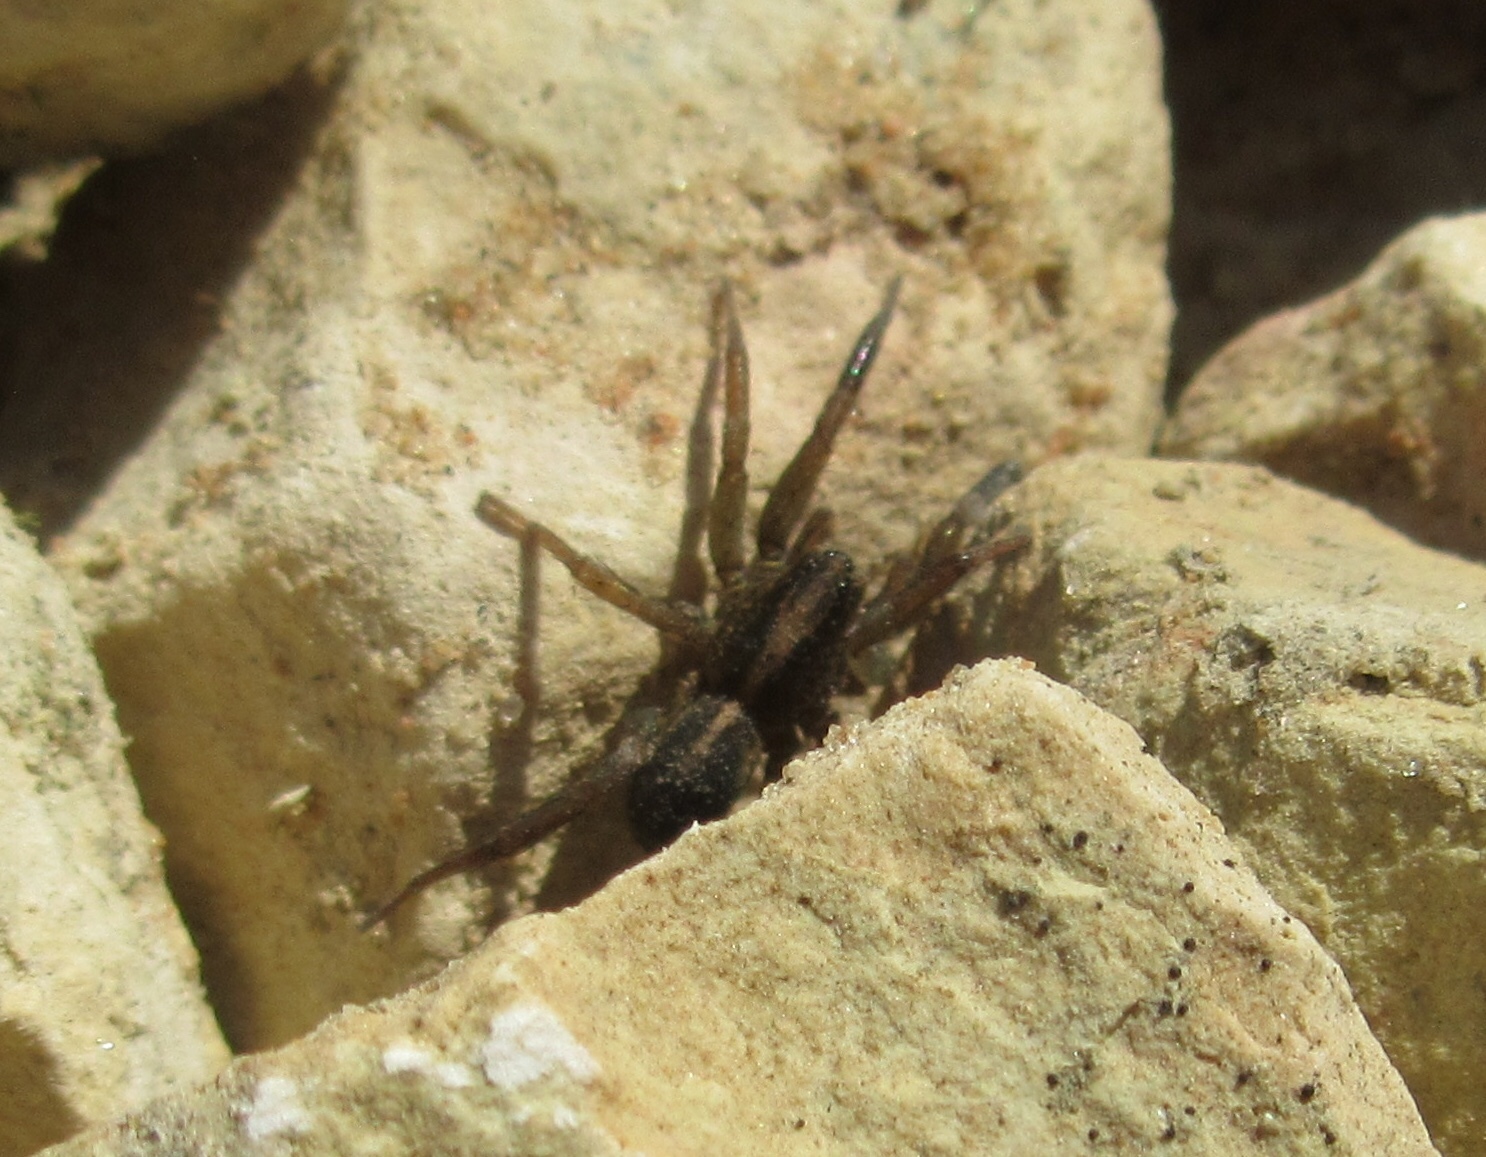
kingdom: Animalia
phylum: Arthropoda
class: Arachnida
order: Araneae
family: Lycosidae
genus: Trochosa
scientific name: Trochosa
